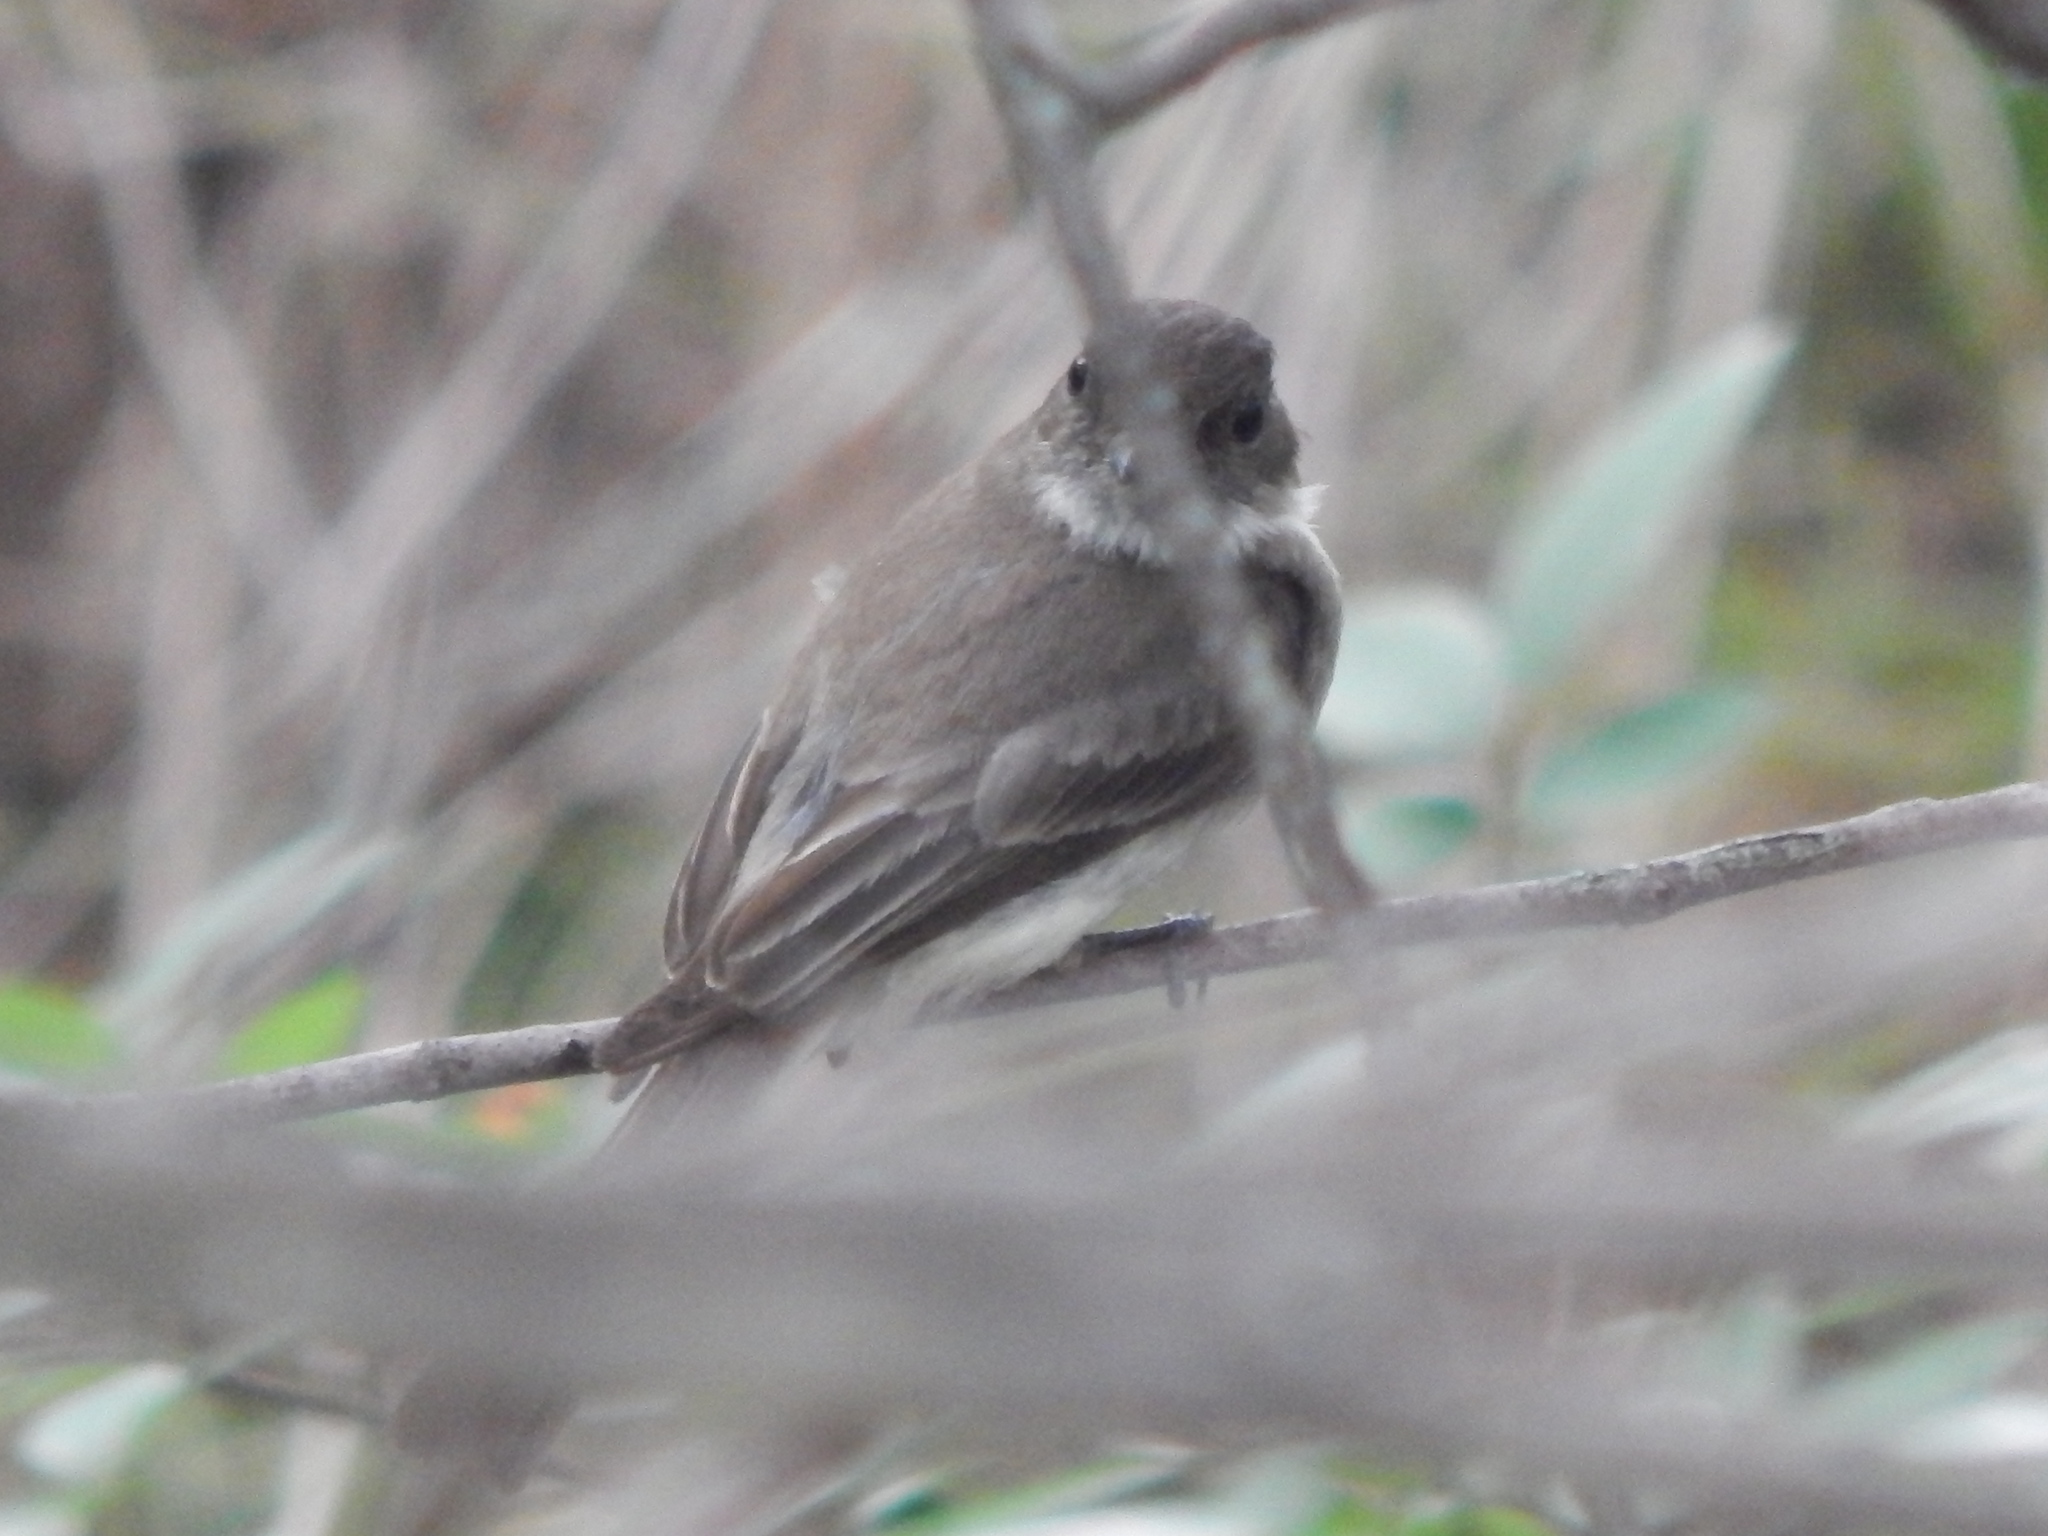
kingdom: Animalia
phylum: Chordata
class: Aves
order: Passeriformes
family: Tyrannidae
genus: Sayornis
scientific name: Sayornis phoebe
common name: Eastern phoebe
